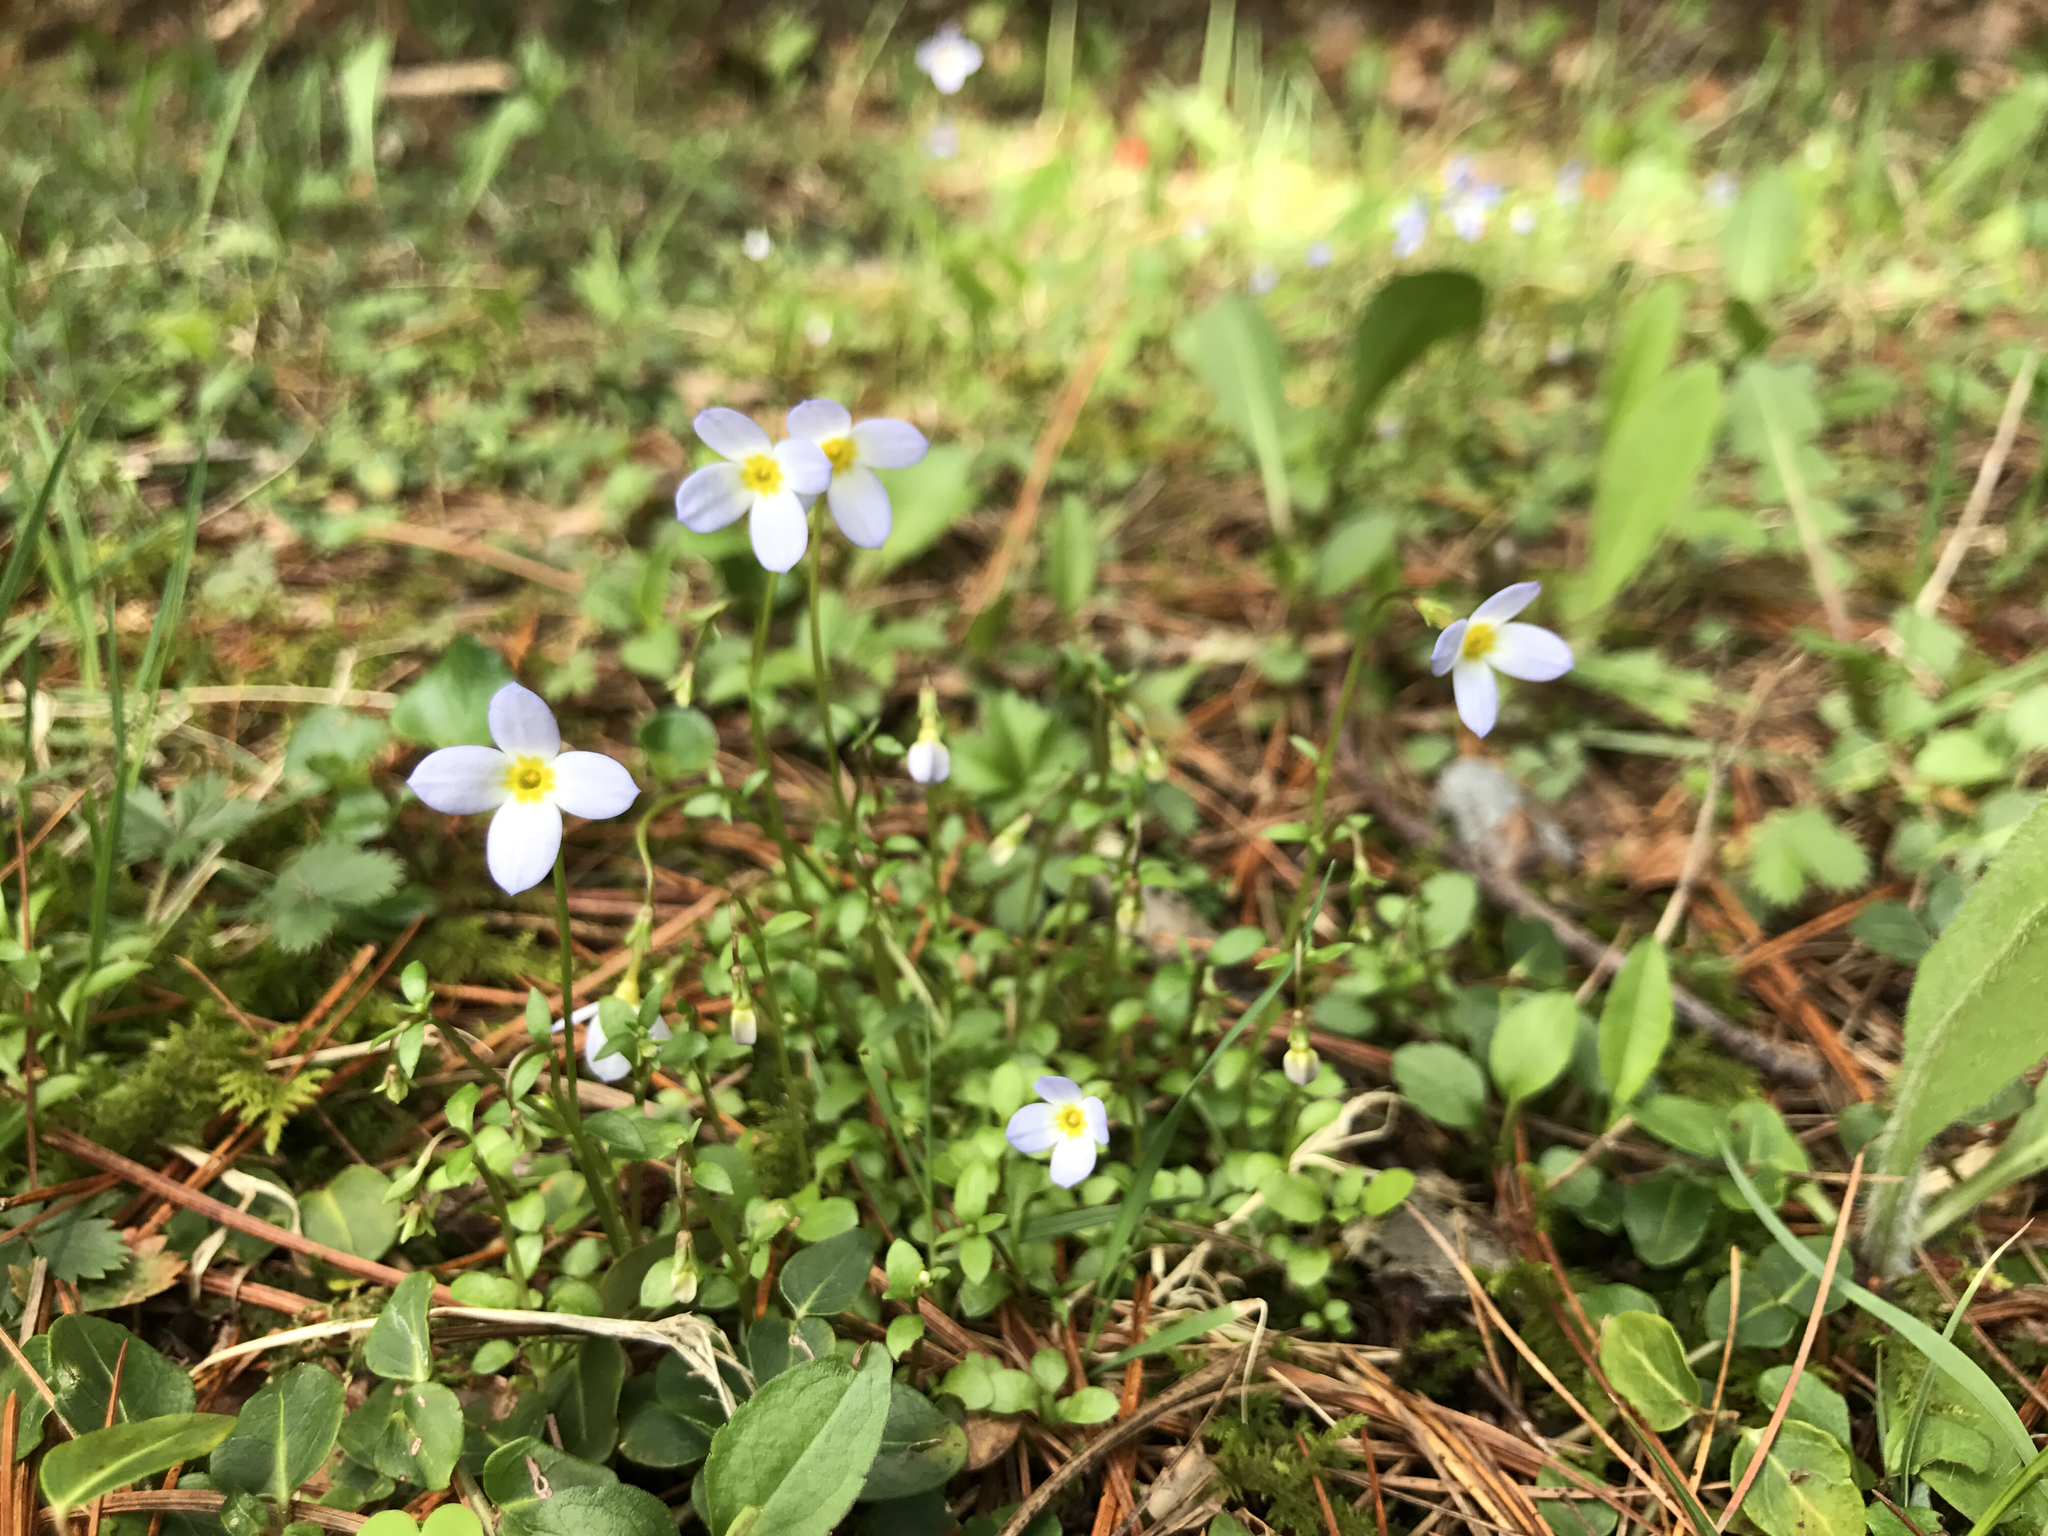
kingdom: Plantae
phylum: Tracheophyta
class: Magnoliopsida
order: Gentianales
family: Rubiaceae
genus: Houstonia
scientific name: Houstonia caerulea
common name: Bluets
